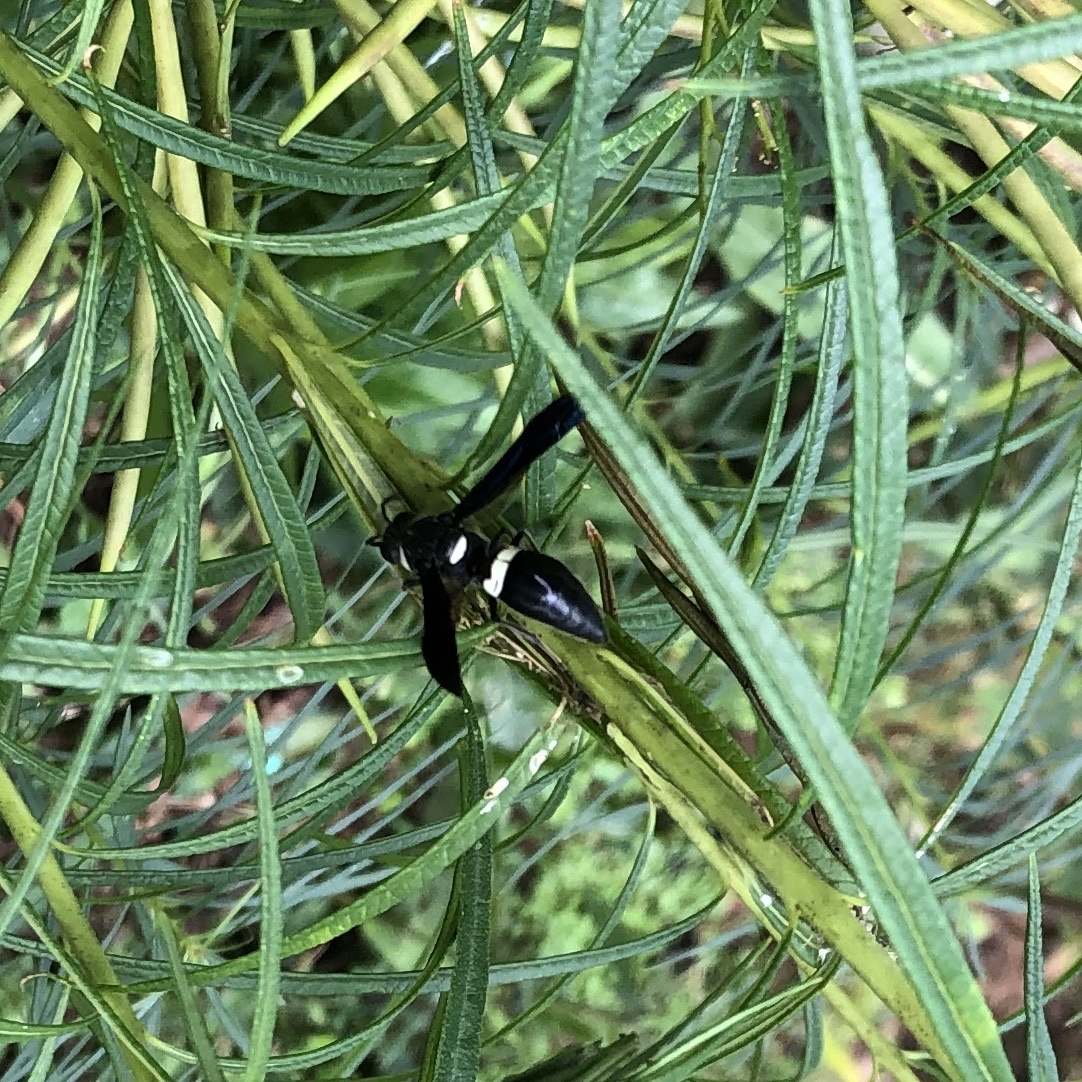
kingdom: Animalia
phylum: Arthropoda
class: Insecta
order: Hymenoptera
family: Eumenidae
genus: Monobia
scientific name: Monobia quadridens
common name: Four-toothed mason wasp
